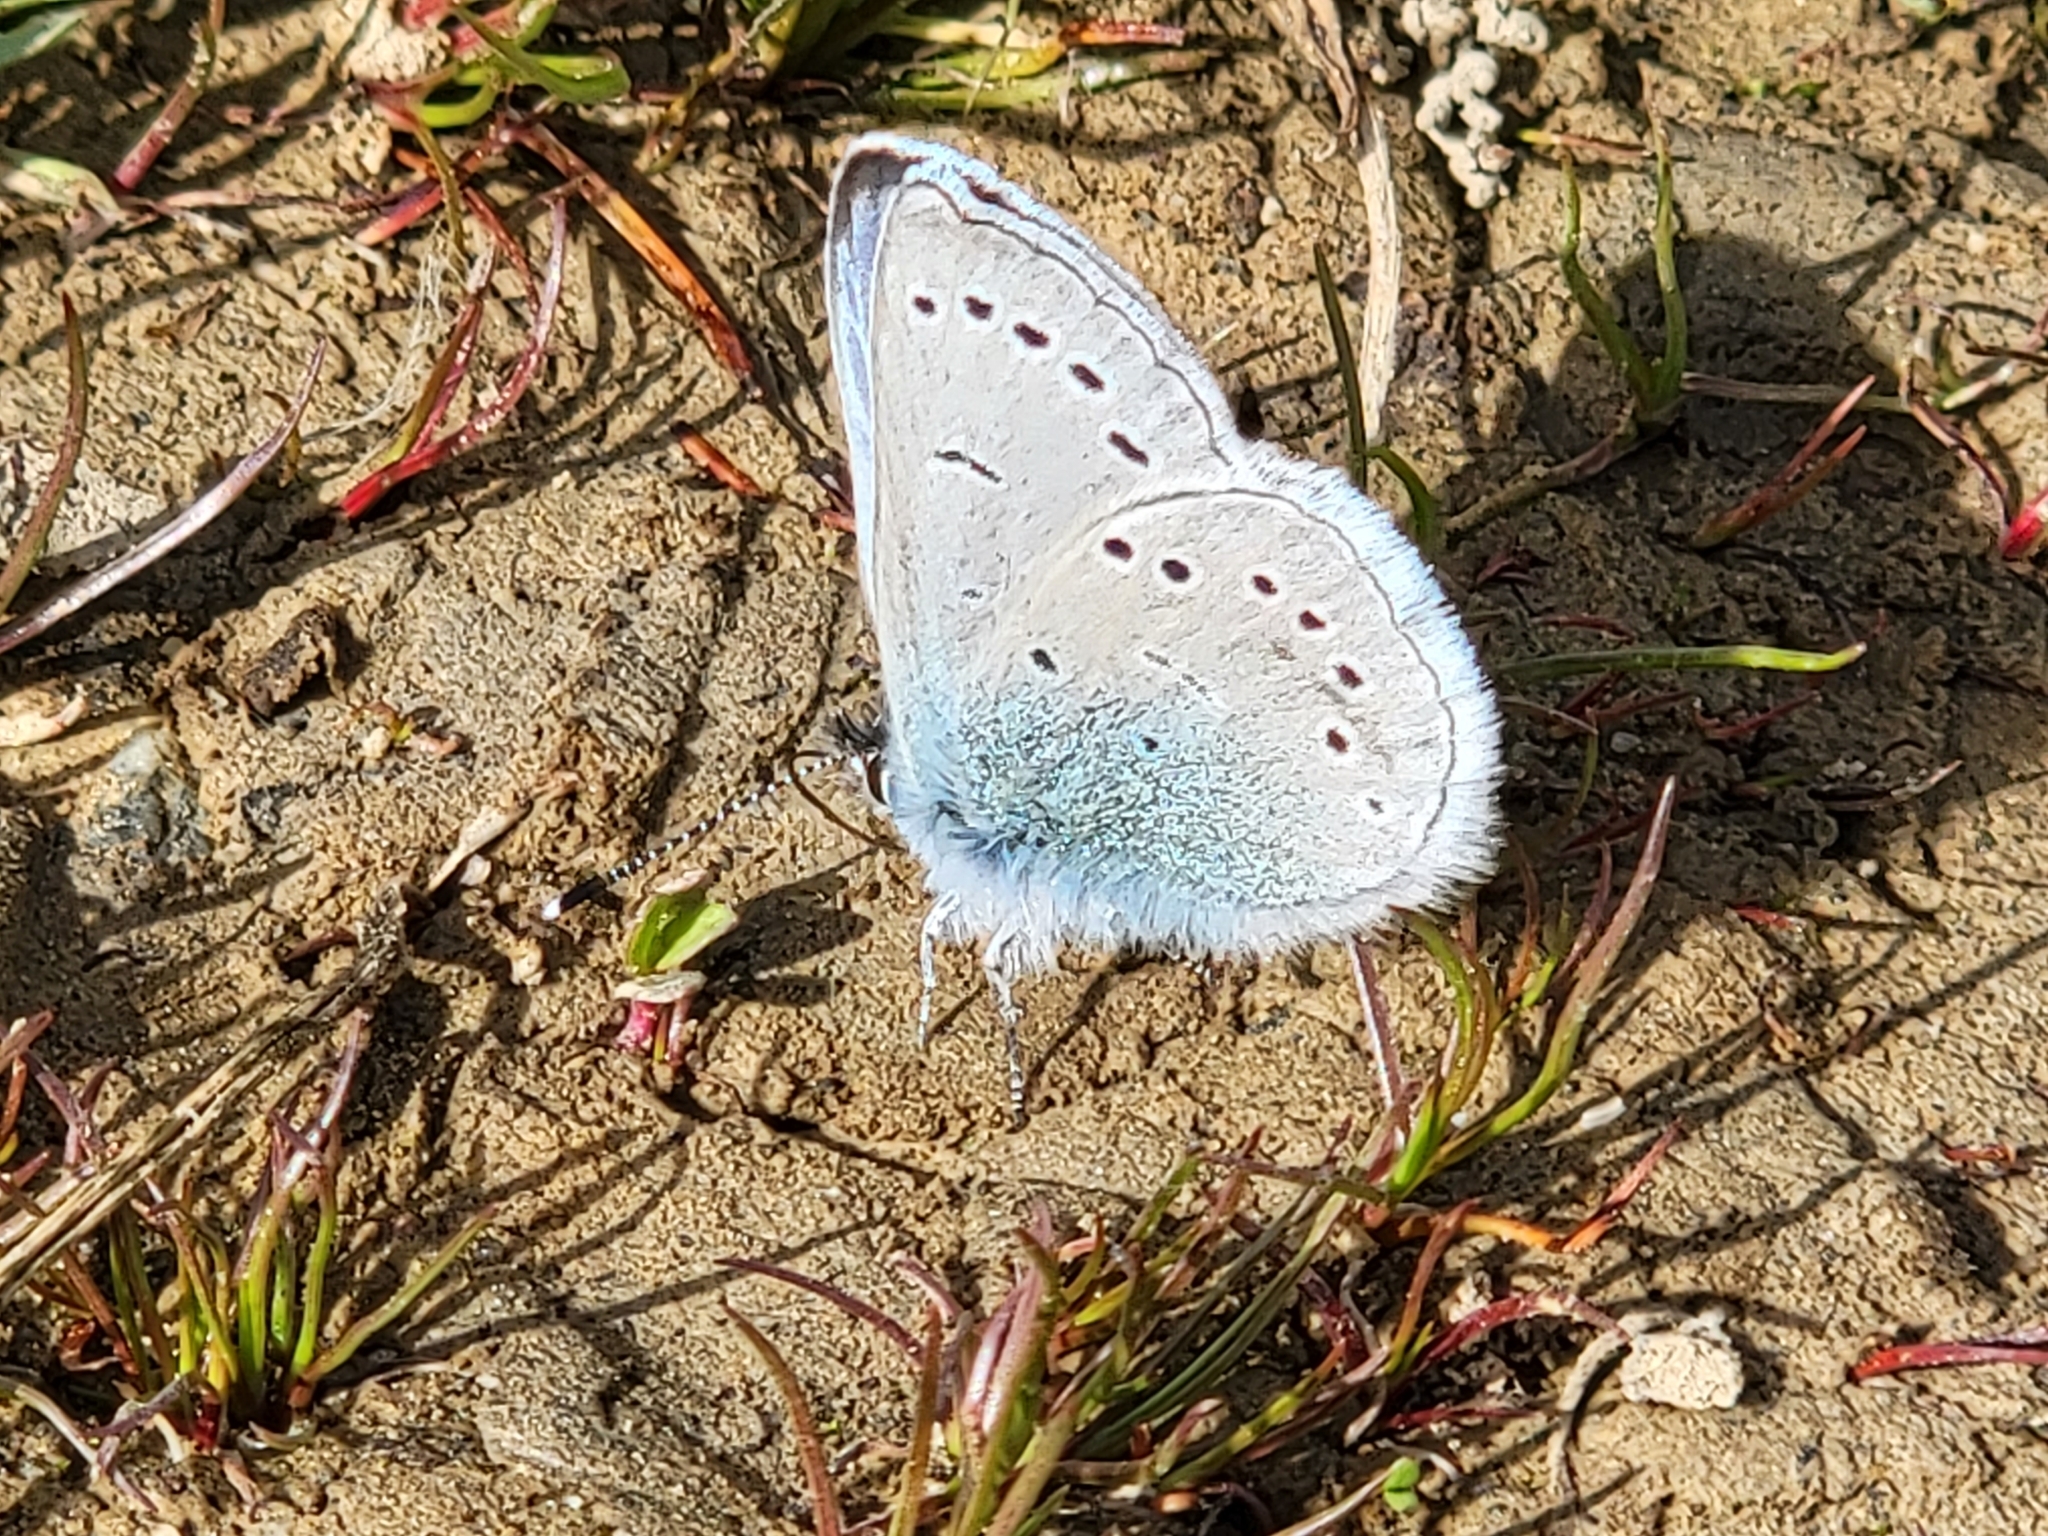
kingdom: Animalia
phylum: Arthropoda
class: Insecta
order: Lepidoptera
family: Lycaenidae
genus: Glaucopsyche
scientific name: Glaucopsyche lygdamus
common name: Silvery blue
